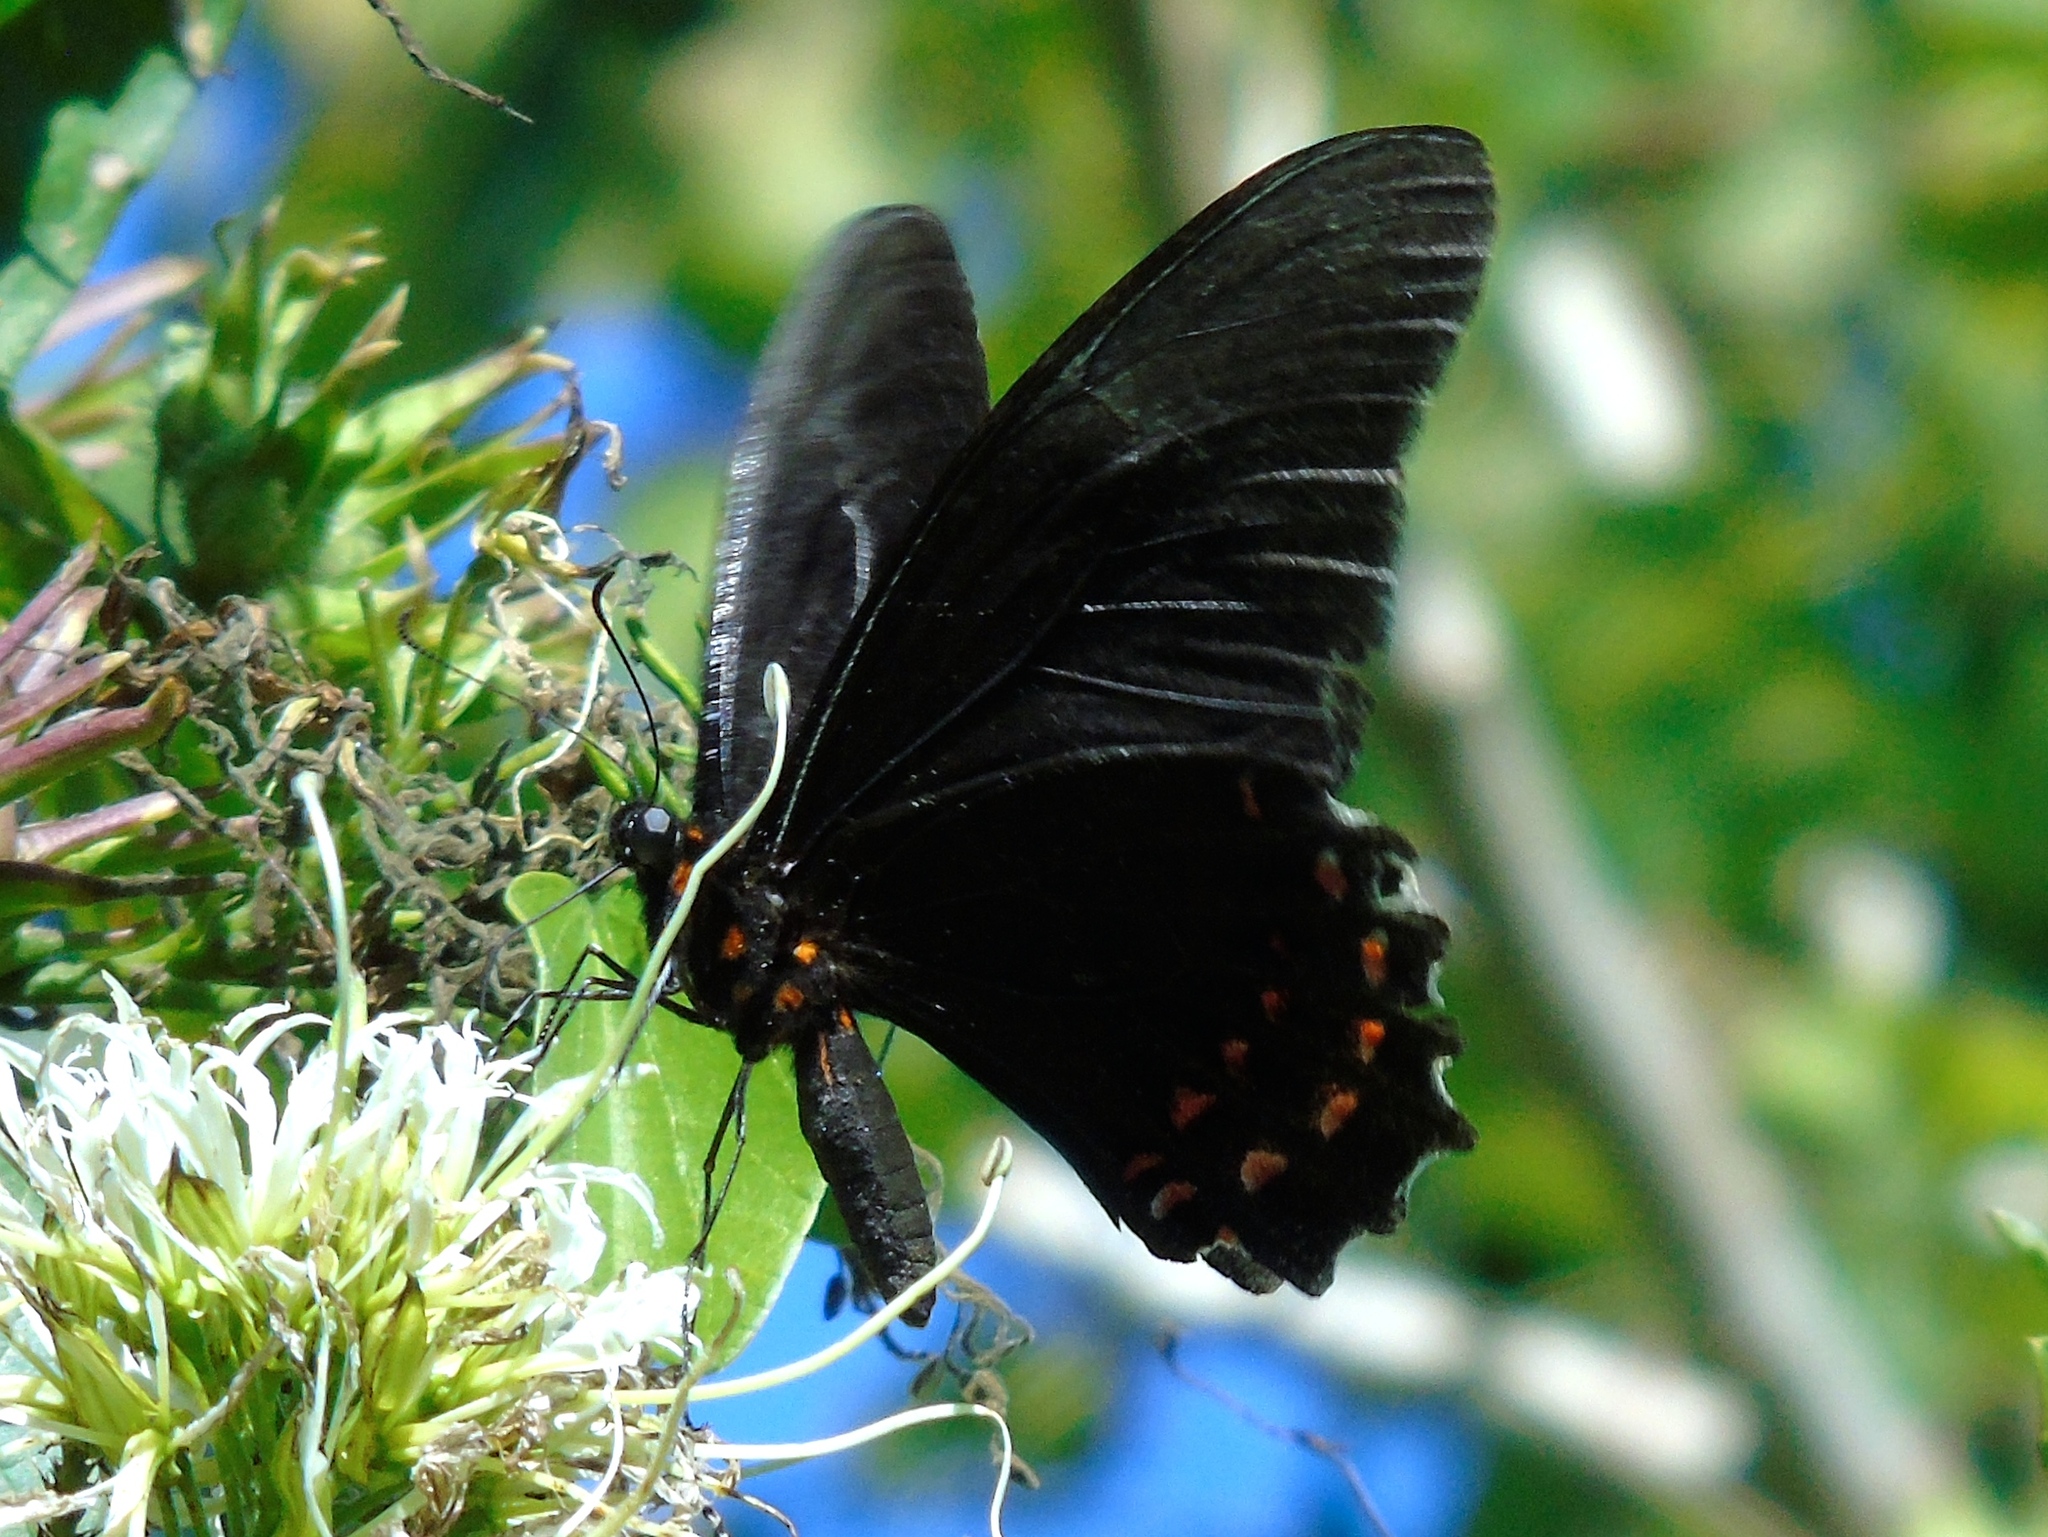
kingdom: Animalia
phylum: Arthropoda
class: Insecta
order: Lepidoptera
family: Papilionidae
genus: Heraclides
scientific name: Heraclides rogeri
